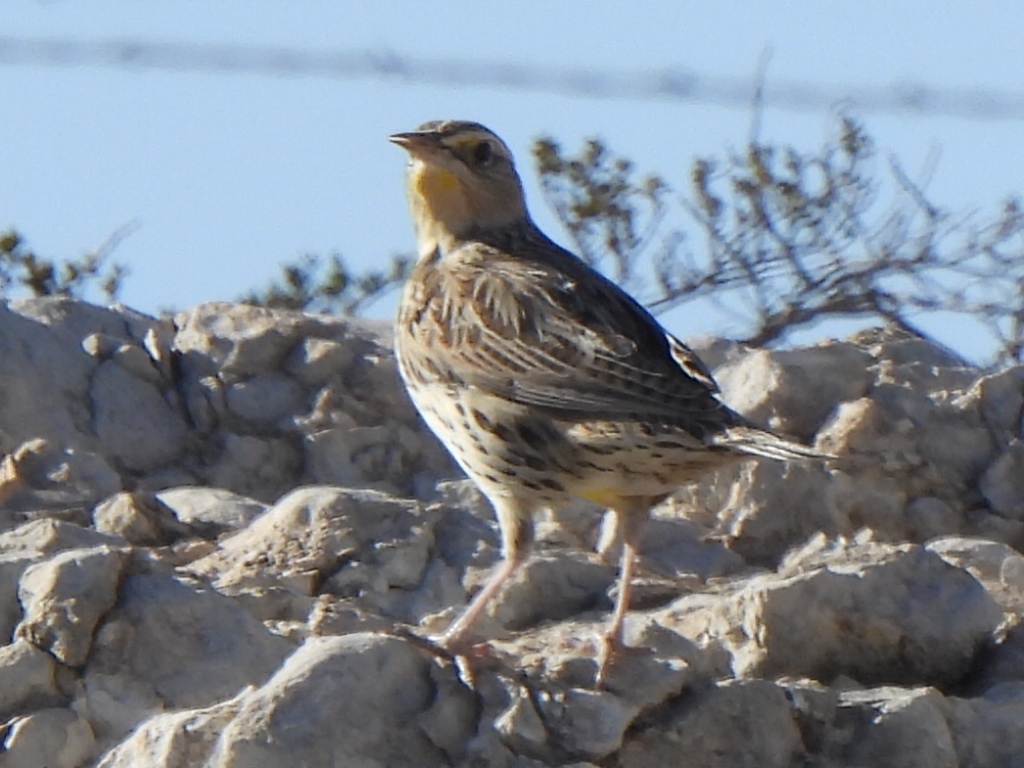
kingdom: Animalia
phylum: Chordata
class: Aves
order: Passeriformes
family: Icteridae
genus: Sturnella
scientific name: Sturnella neglecta
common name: Western meadowlark
